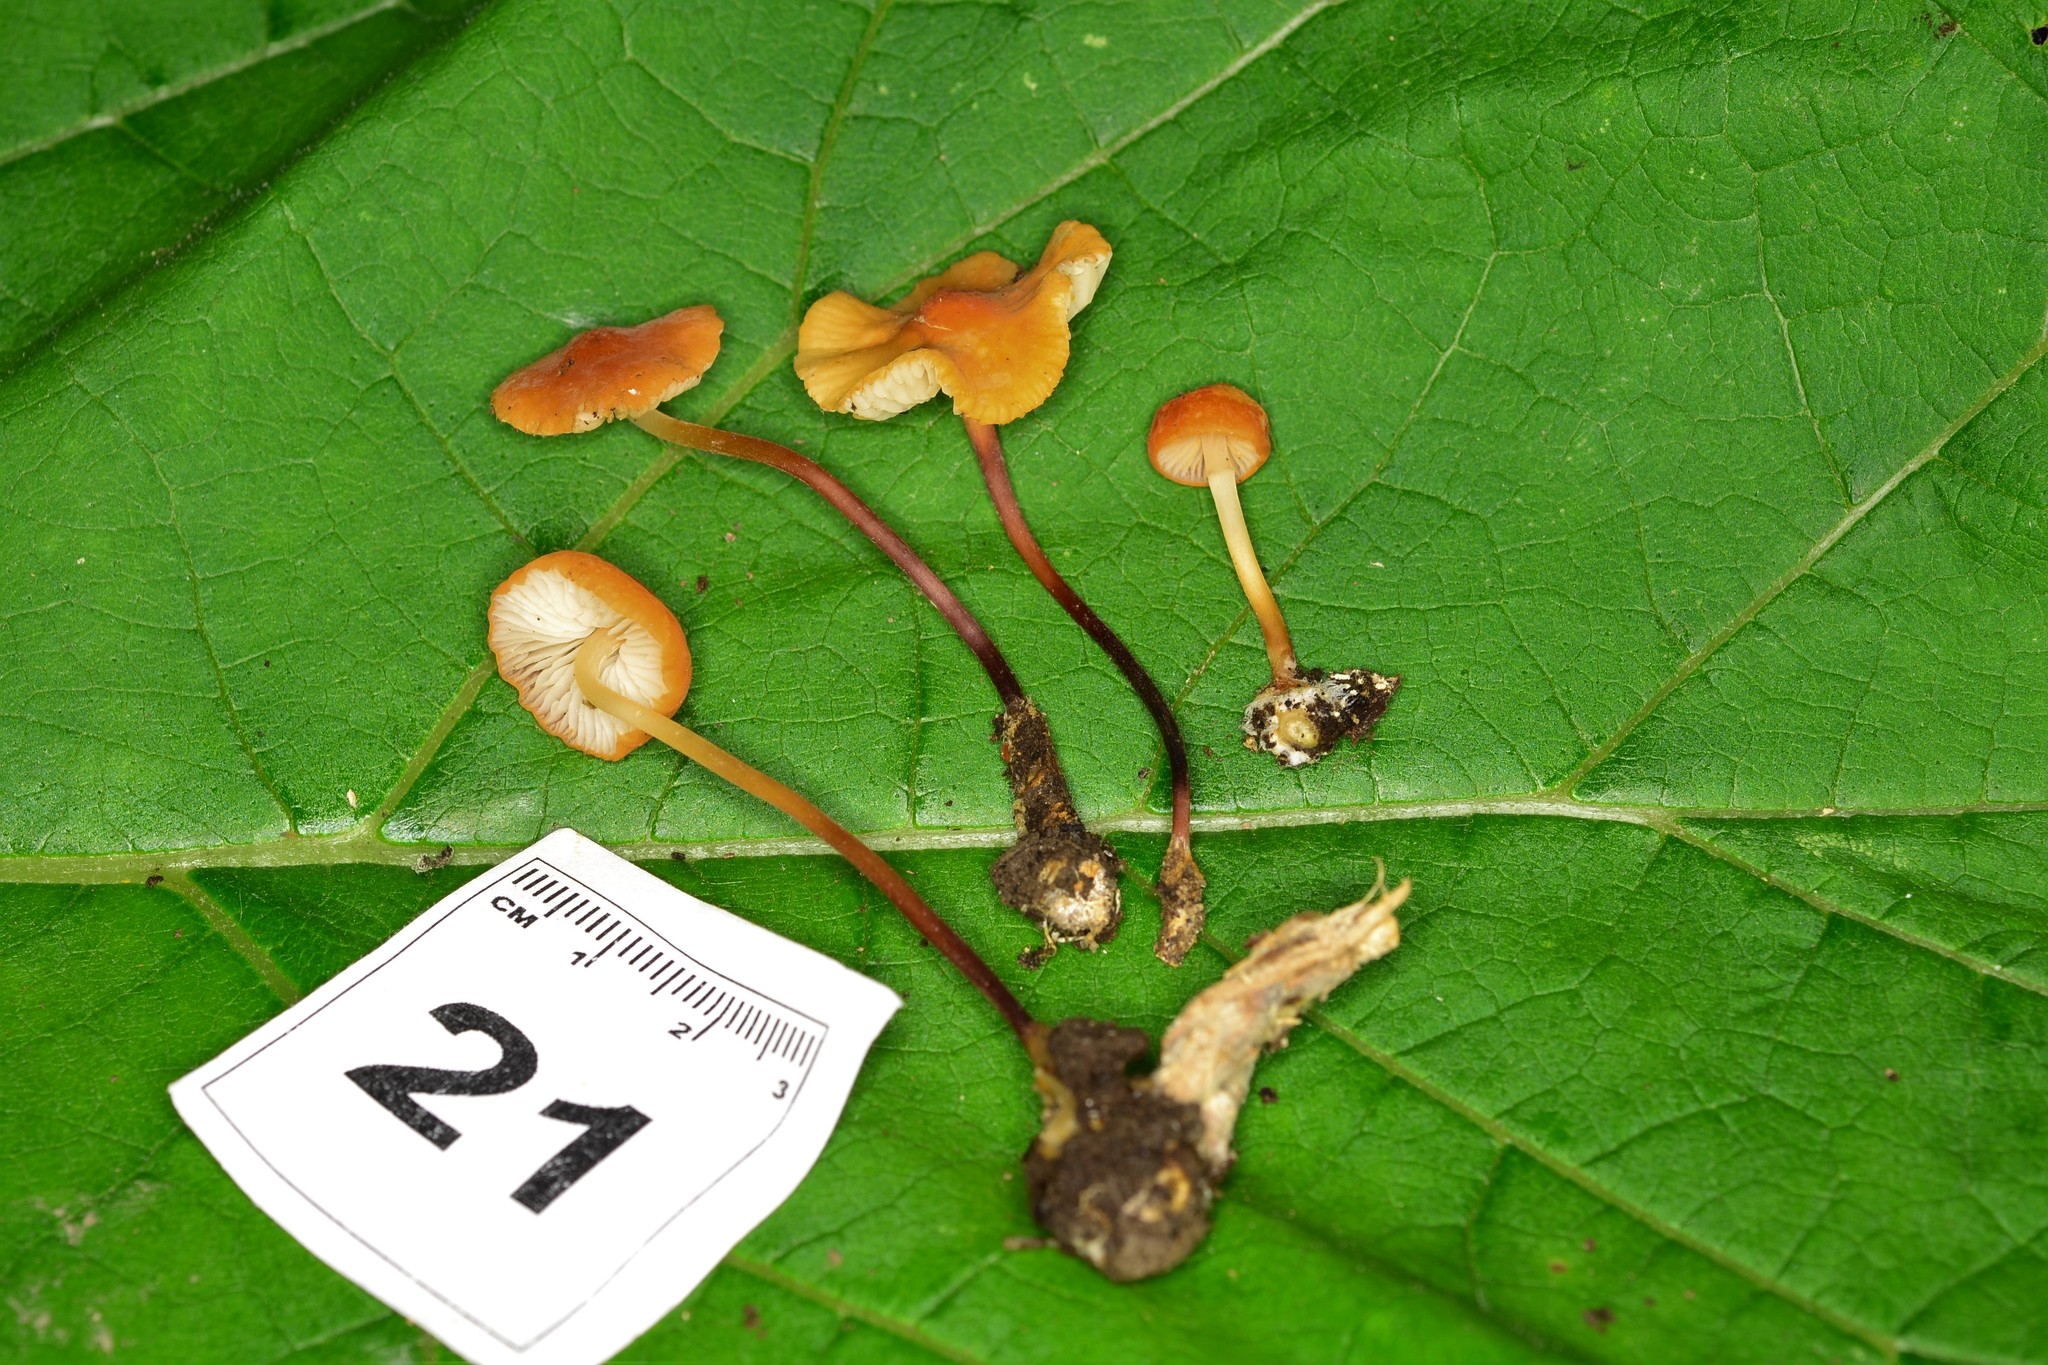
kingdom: Fungi
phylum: Basidiomycota
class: Agaricomycetes
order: Agaricales
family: Marasmiaceae
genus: Marasmius
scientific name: Marasmius sullivantii
